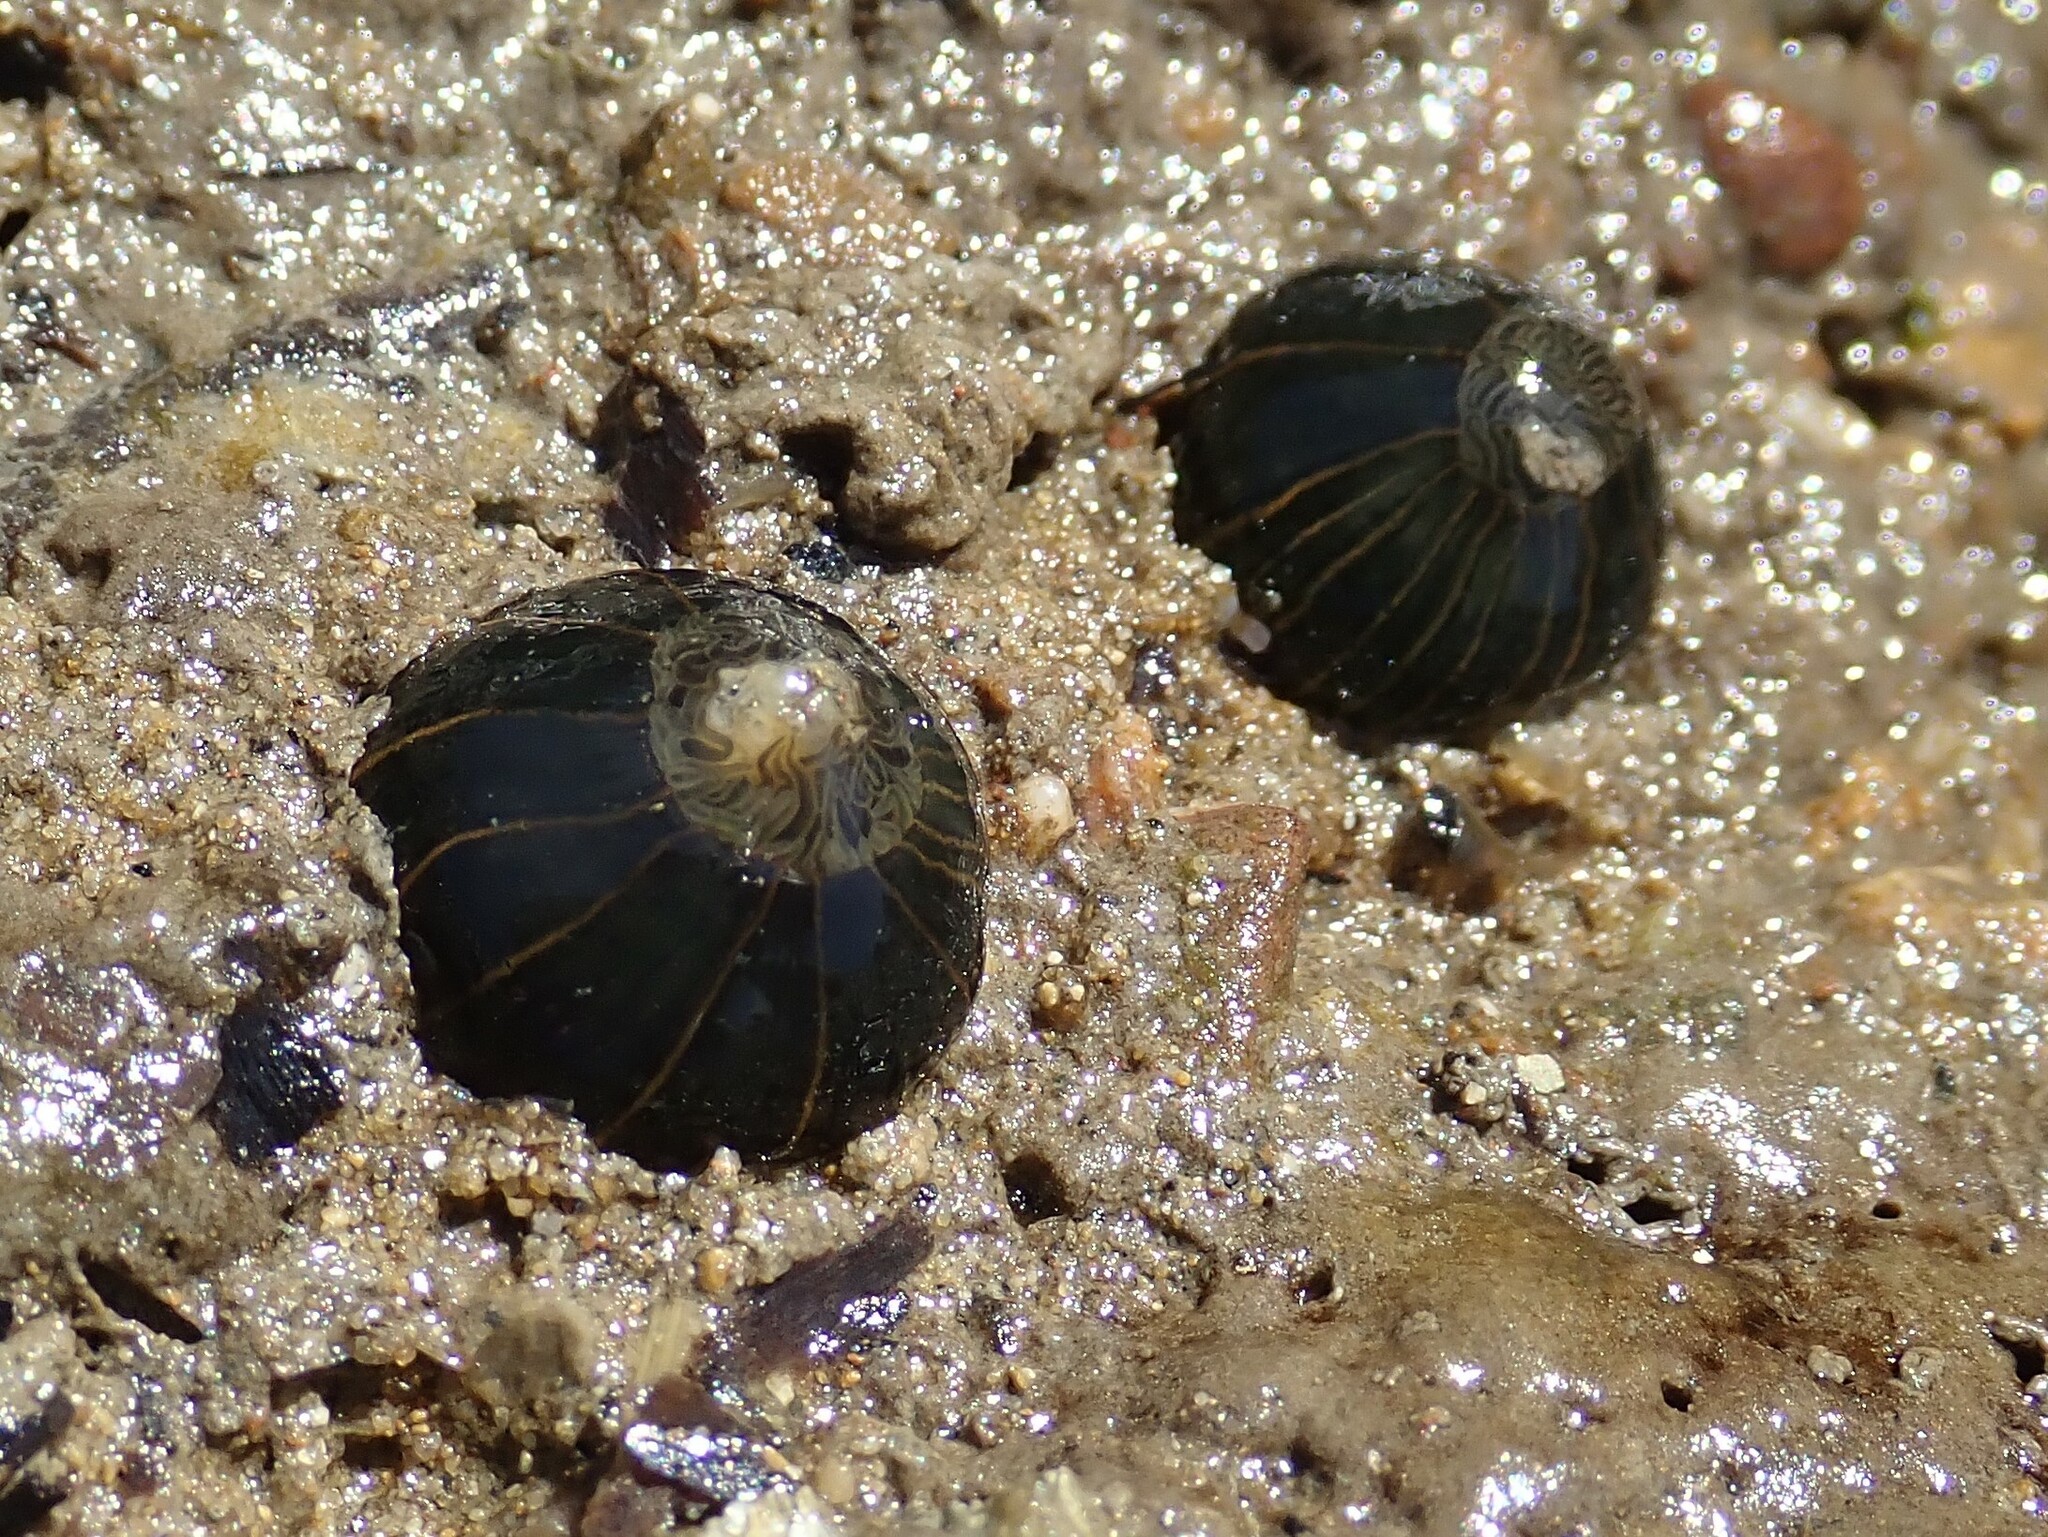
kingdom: Animalia
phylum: Cnidaria
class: Anthozoa
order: Actiniaria
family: Diadumenidae
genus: Diadumene
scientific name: Diadumene lineata
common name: Orange-striped anemone
